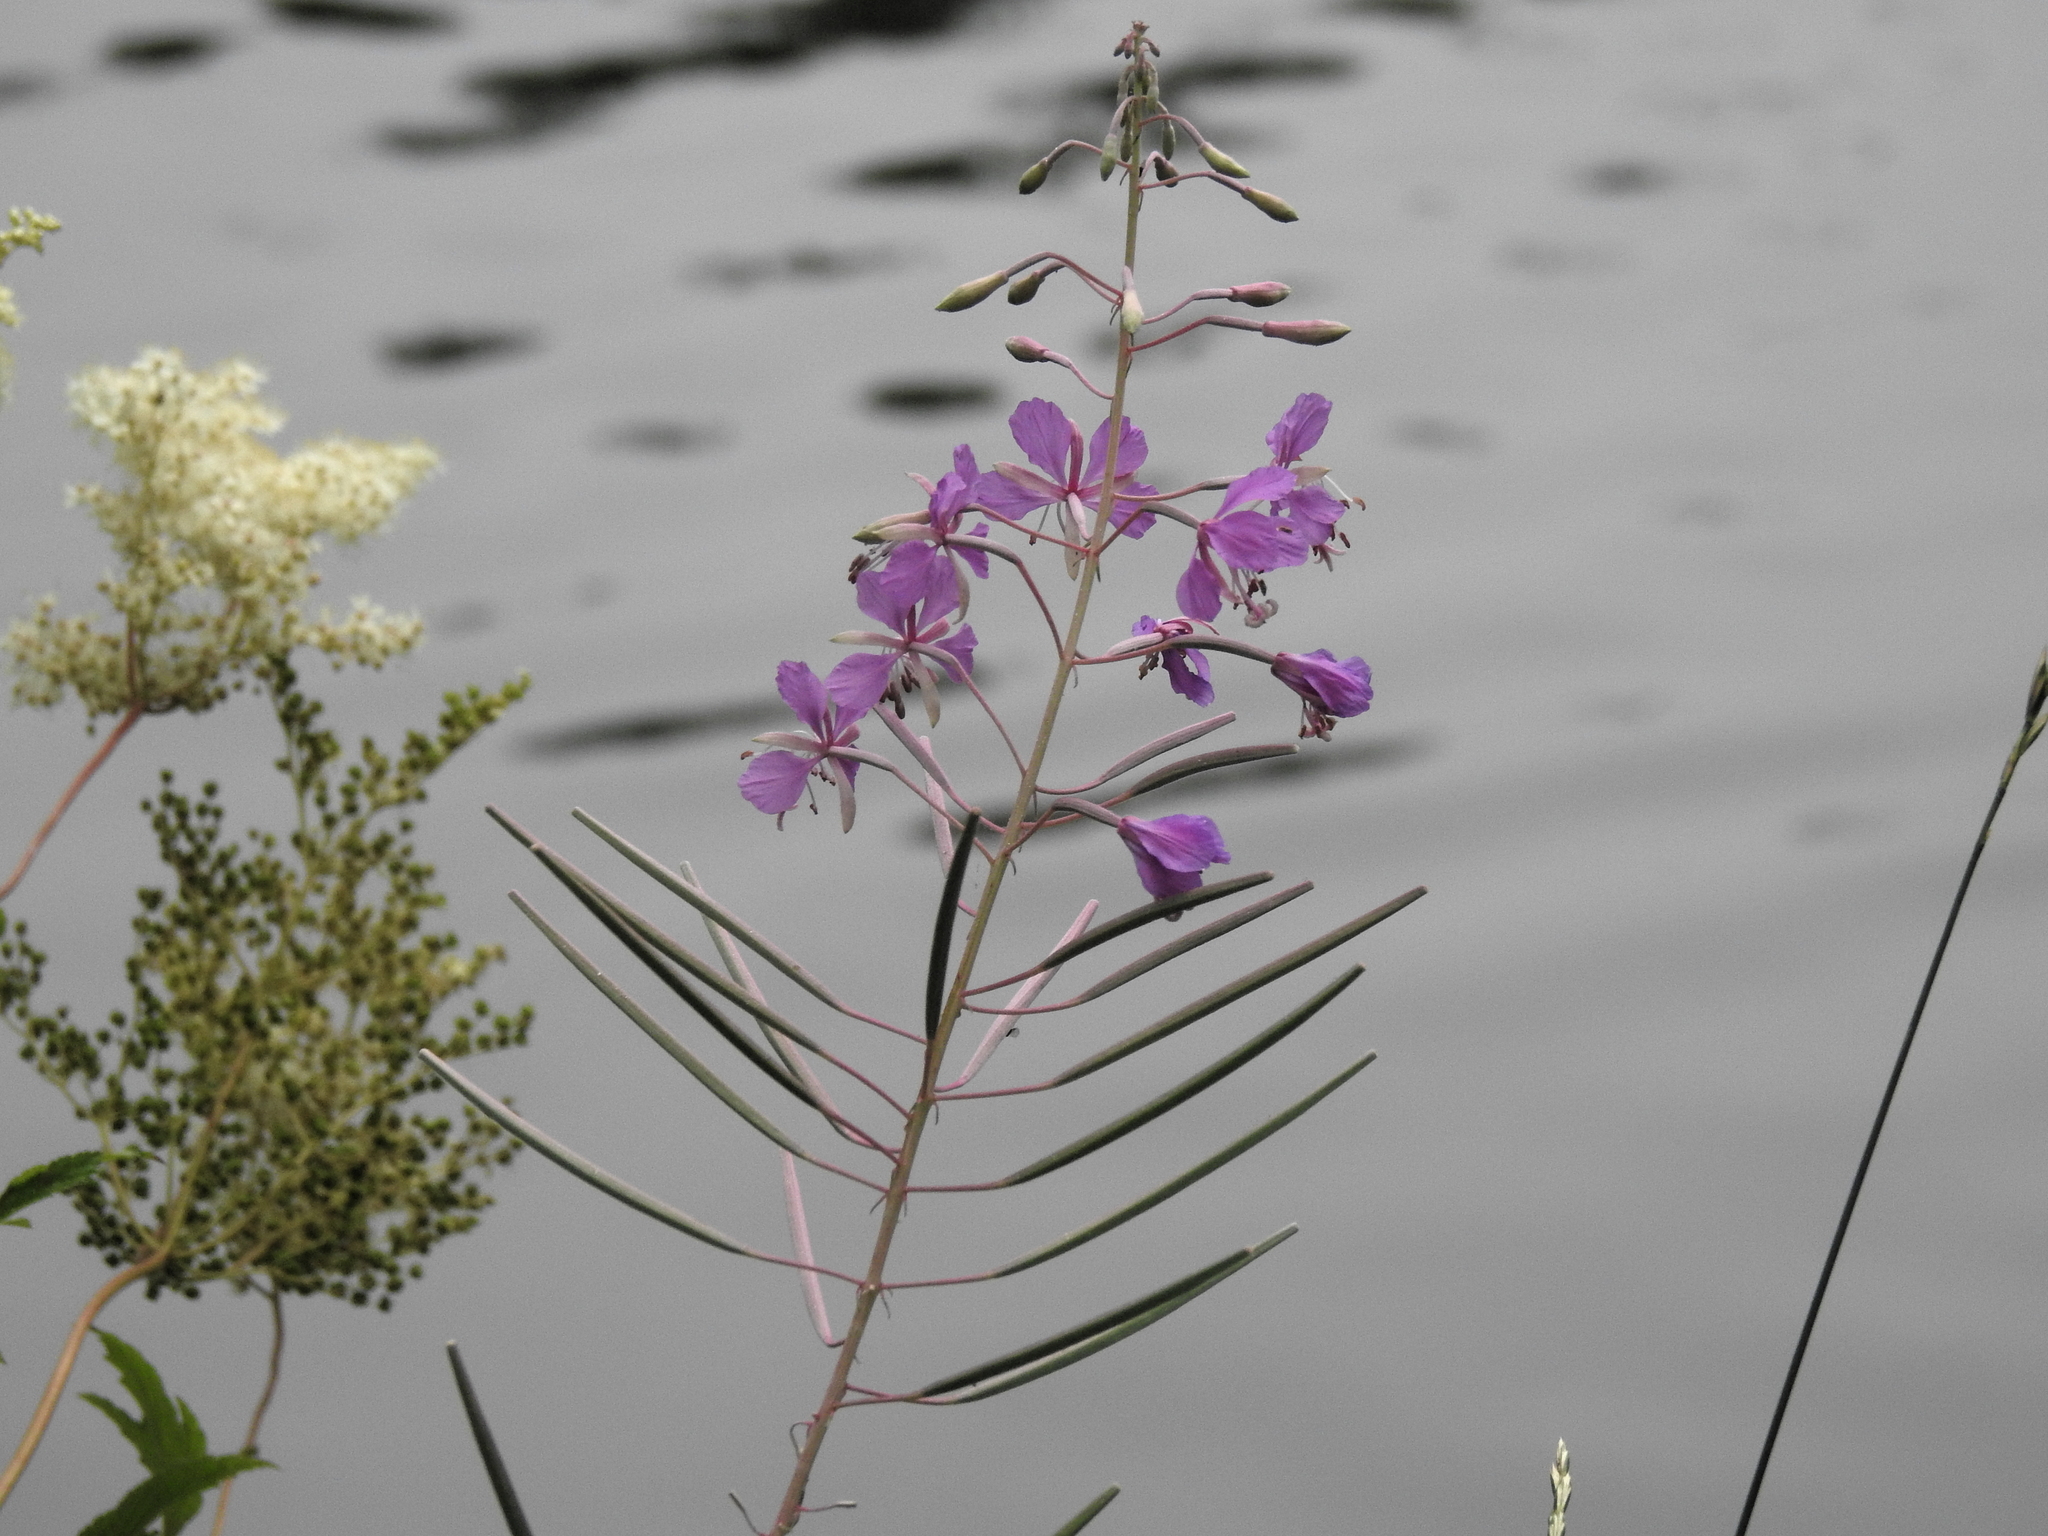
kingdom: Plantae
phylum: Tracheophyta
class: Magnoliopsida
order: Myrtales
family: Onagraceae
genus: Chamaenerion
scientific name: Chamaenerion angustifolium
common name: Fireweed
